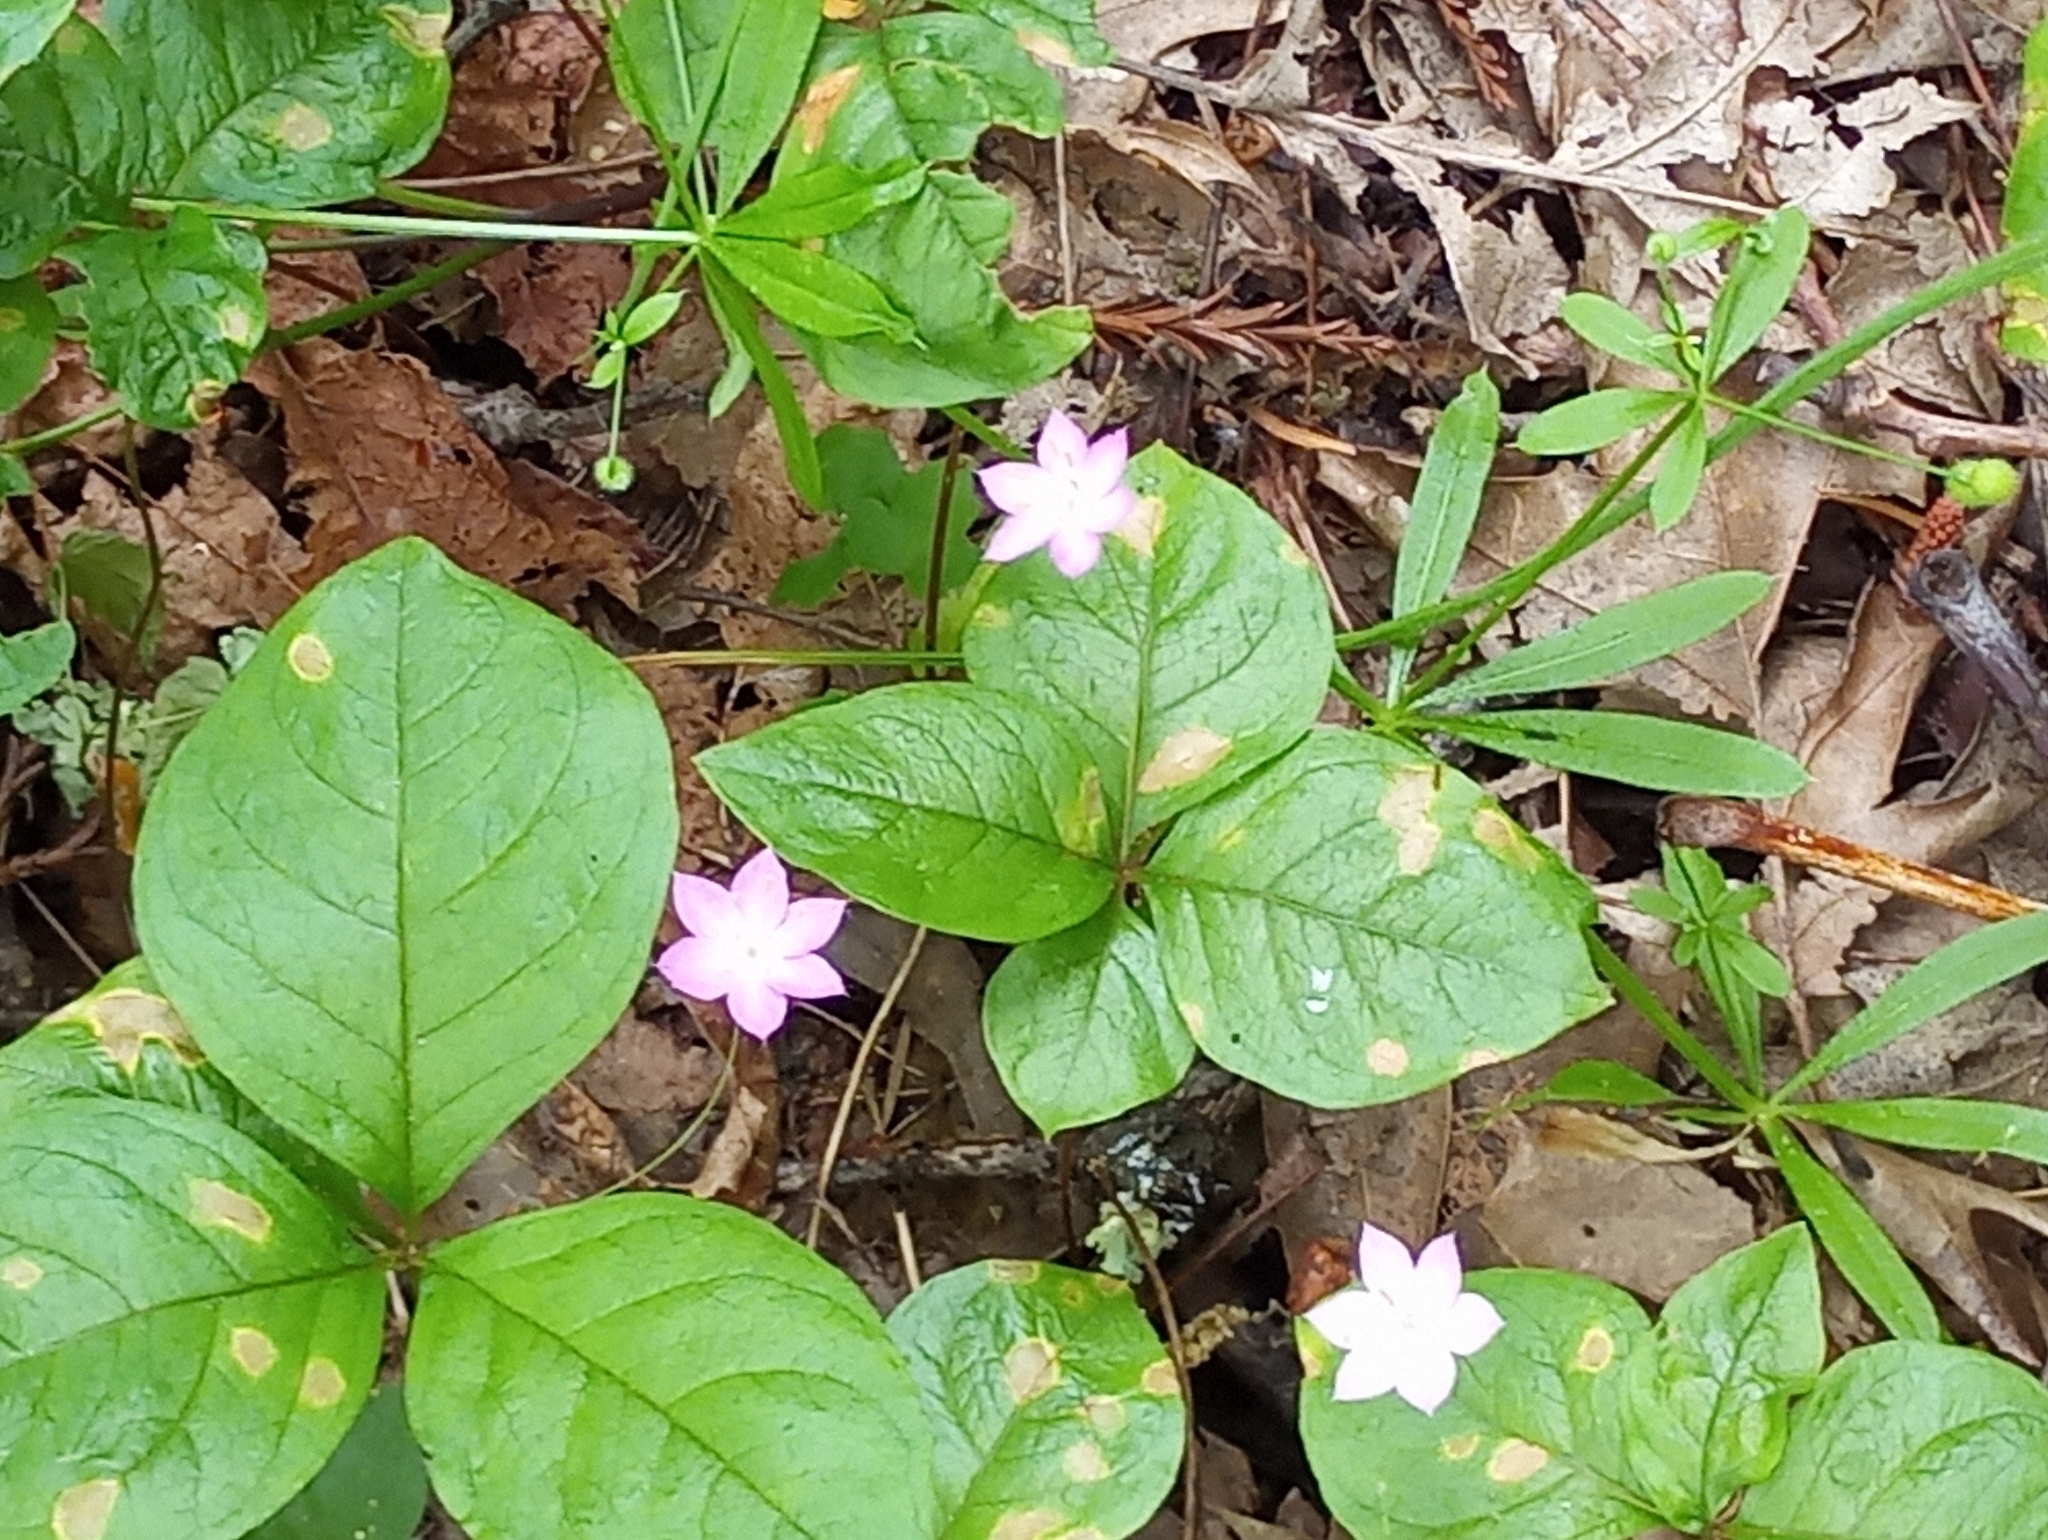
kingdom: Plantae
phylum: Tracheophyta
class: Magnoliopsida
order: Ericales
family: Primulaceae
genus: Lysimachia
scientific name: Lysimachia latifolia
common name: Pacific starflower
